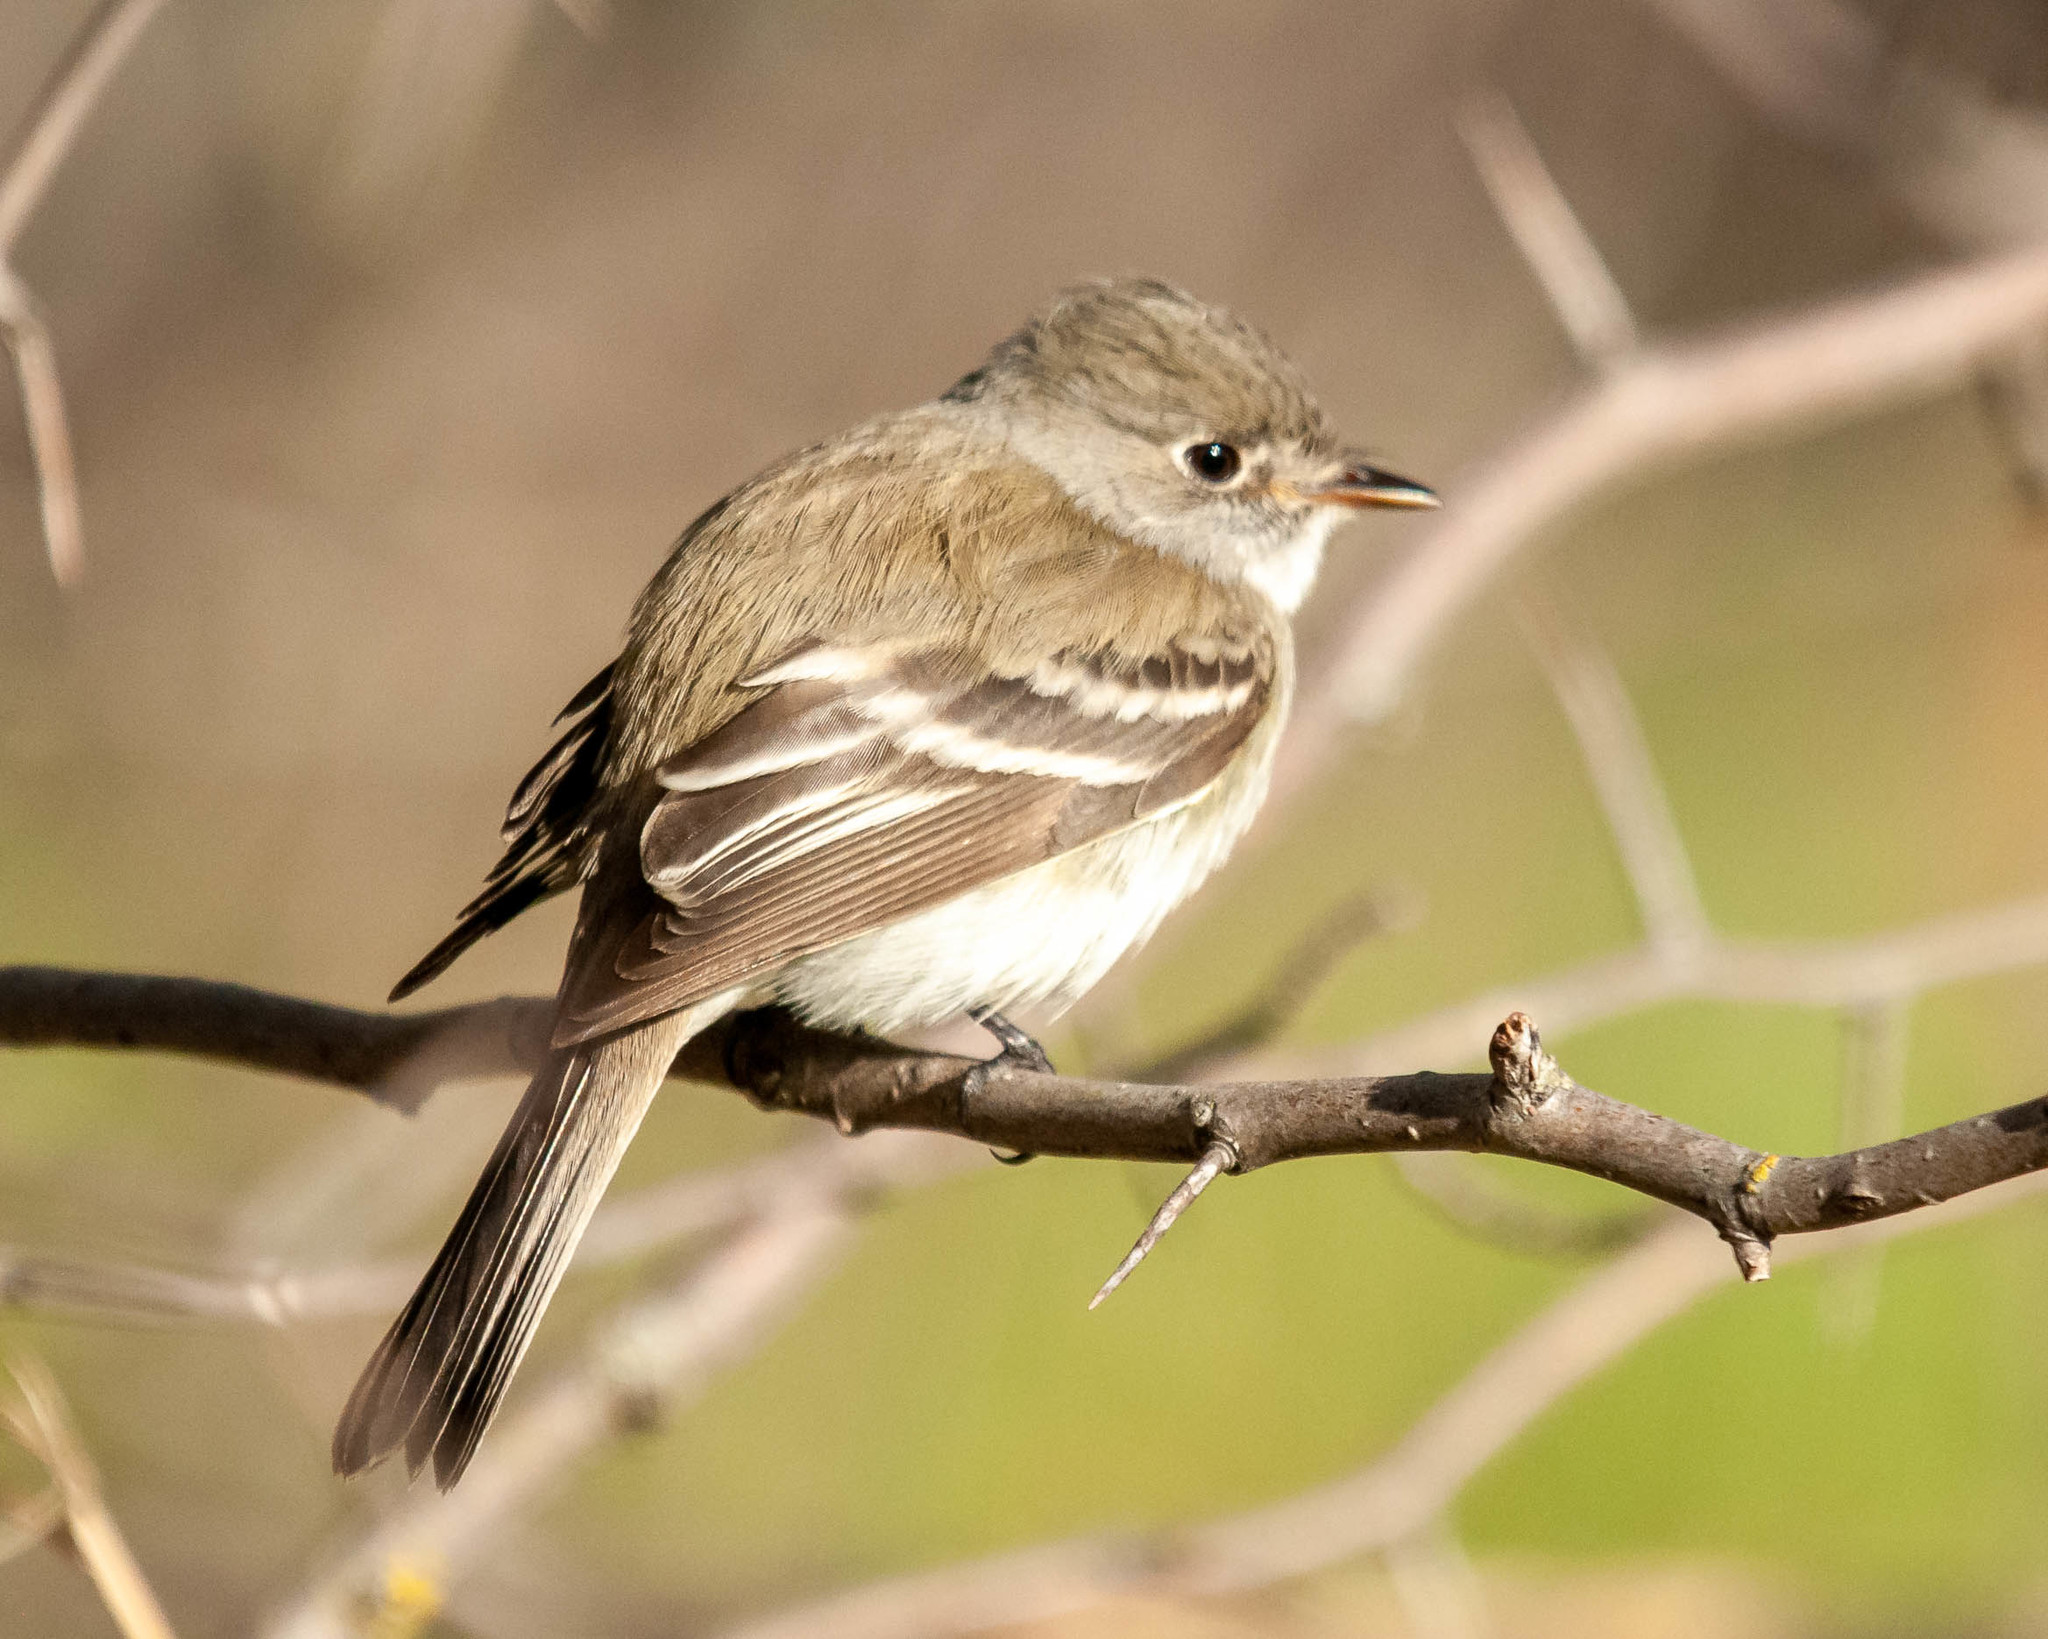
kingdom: Animalia
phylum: Chordata
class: Aves
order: Passeriformes
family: Tyrannidae
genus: Empidonax
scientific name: Empidonax minimus
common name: Least flycatcher
